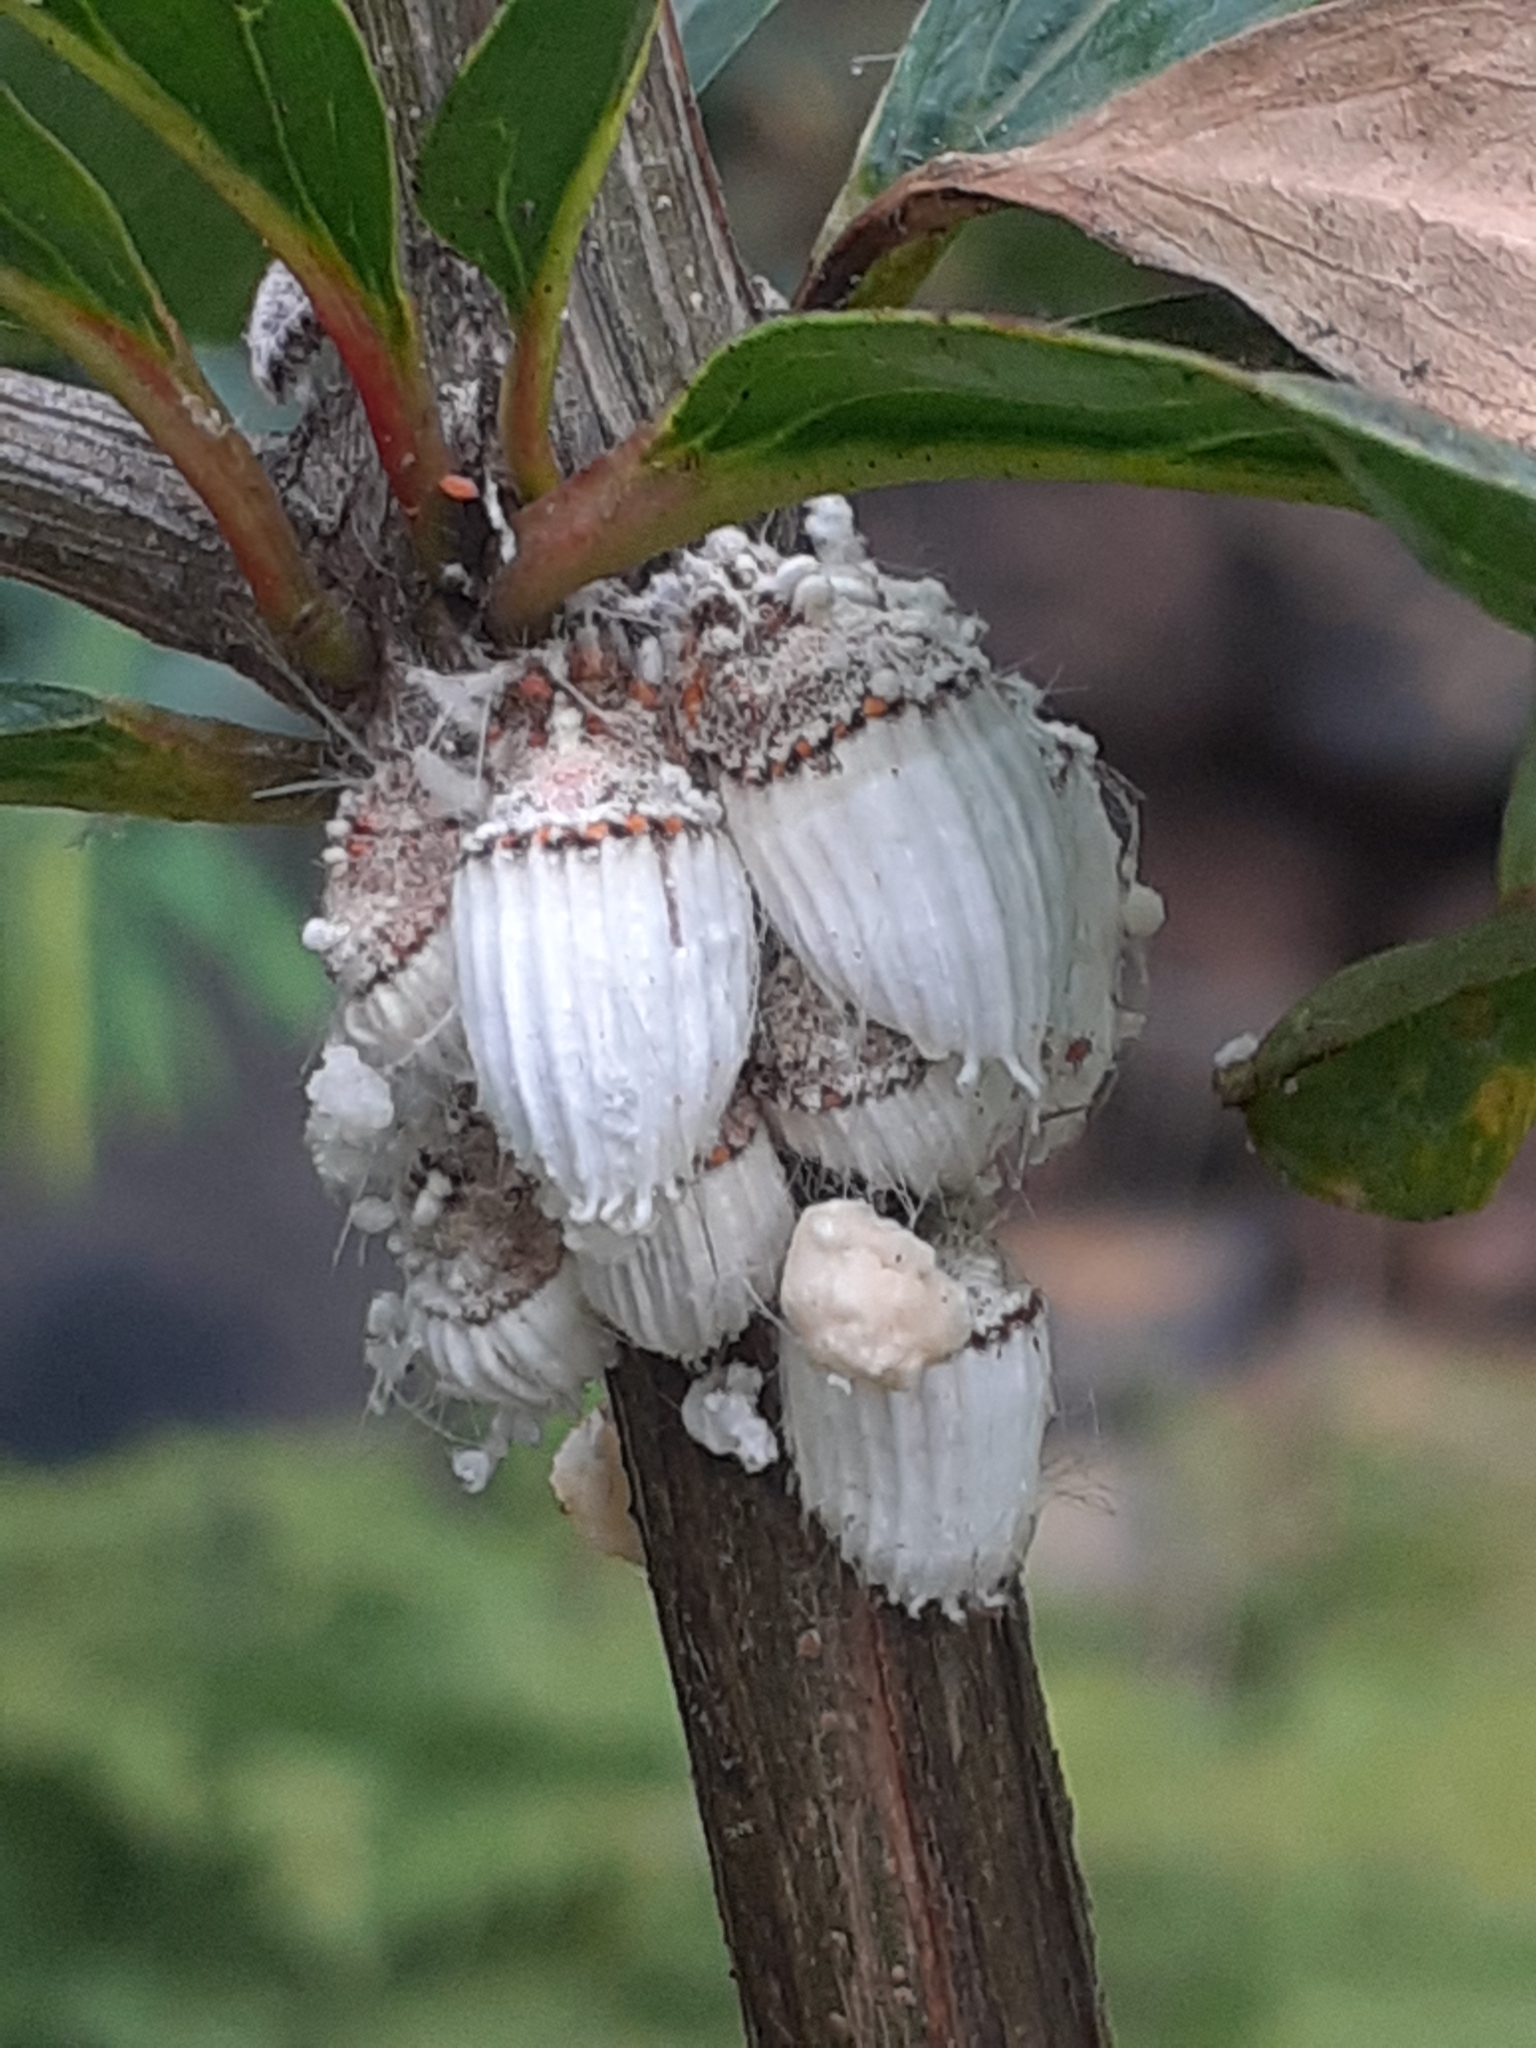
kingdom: Animalia
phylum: Arthropoda
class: Insecta
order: Hemiptera
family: Margarodidae
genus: Icerya
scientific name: Icerya purchasi
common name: Cottony cushion scale
